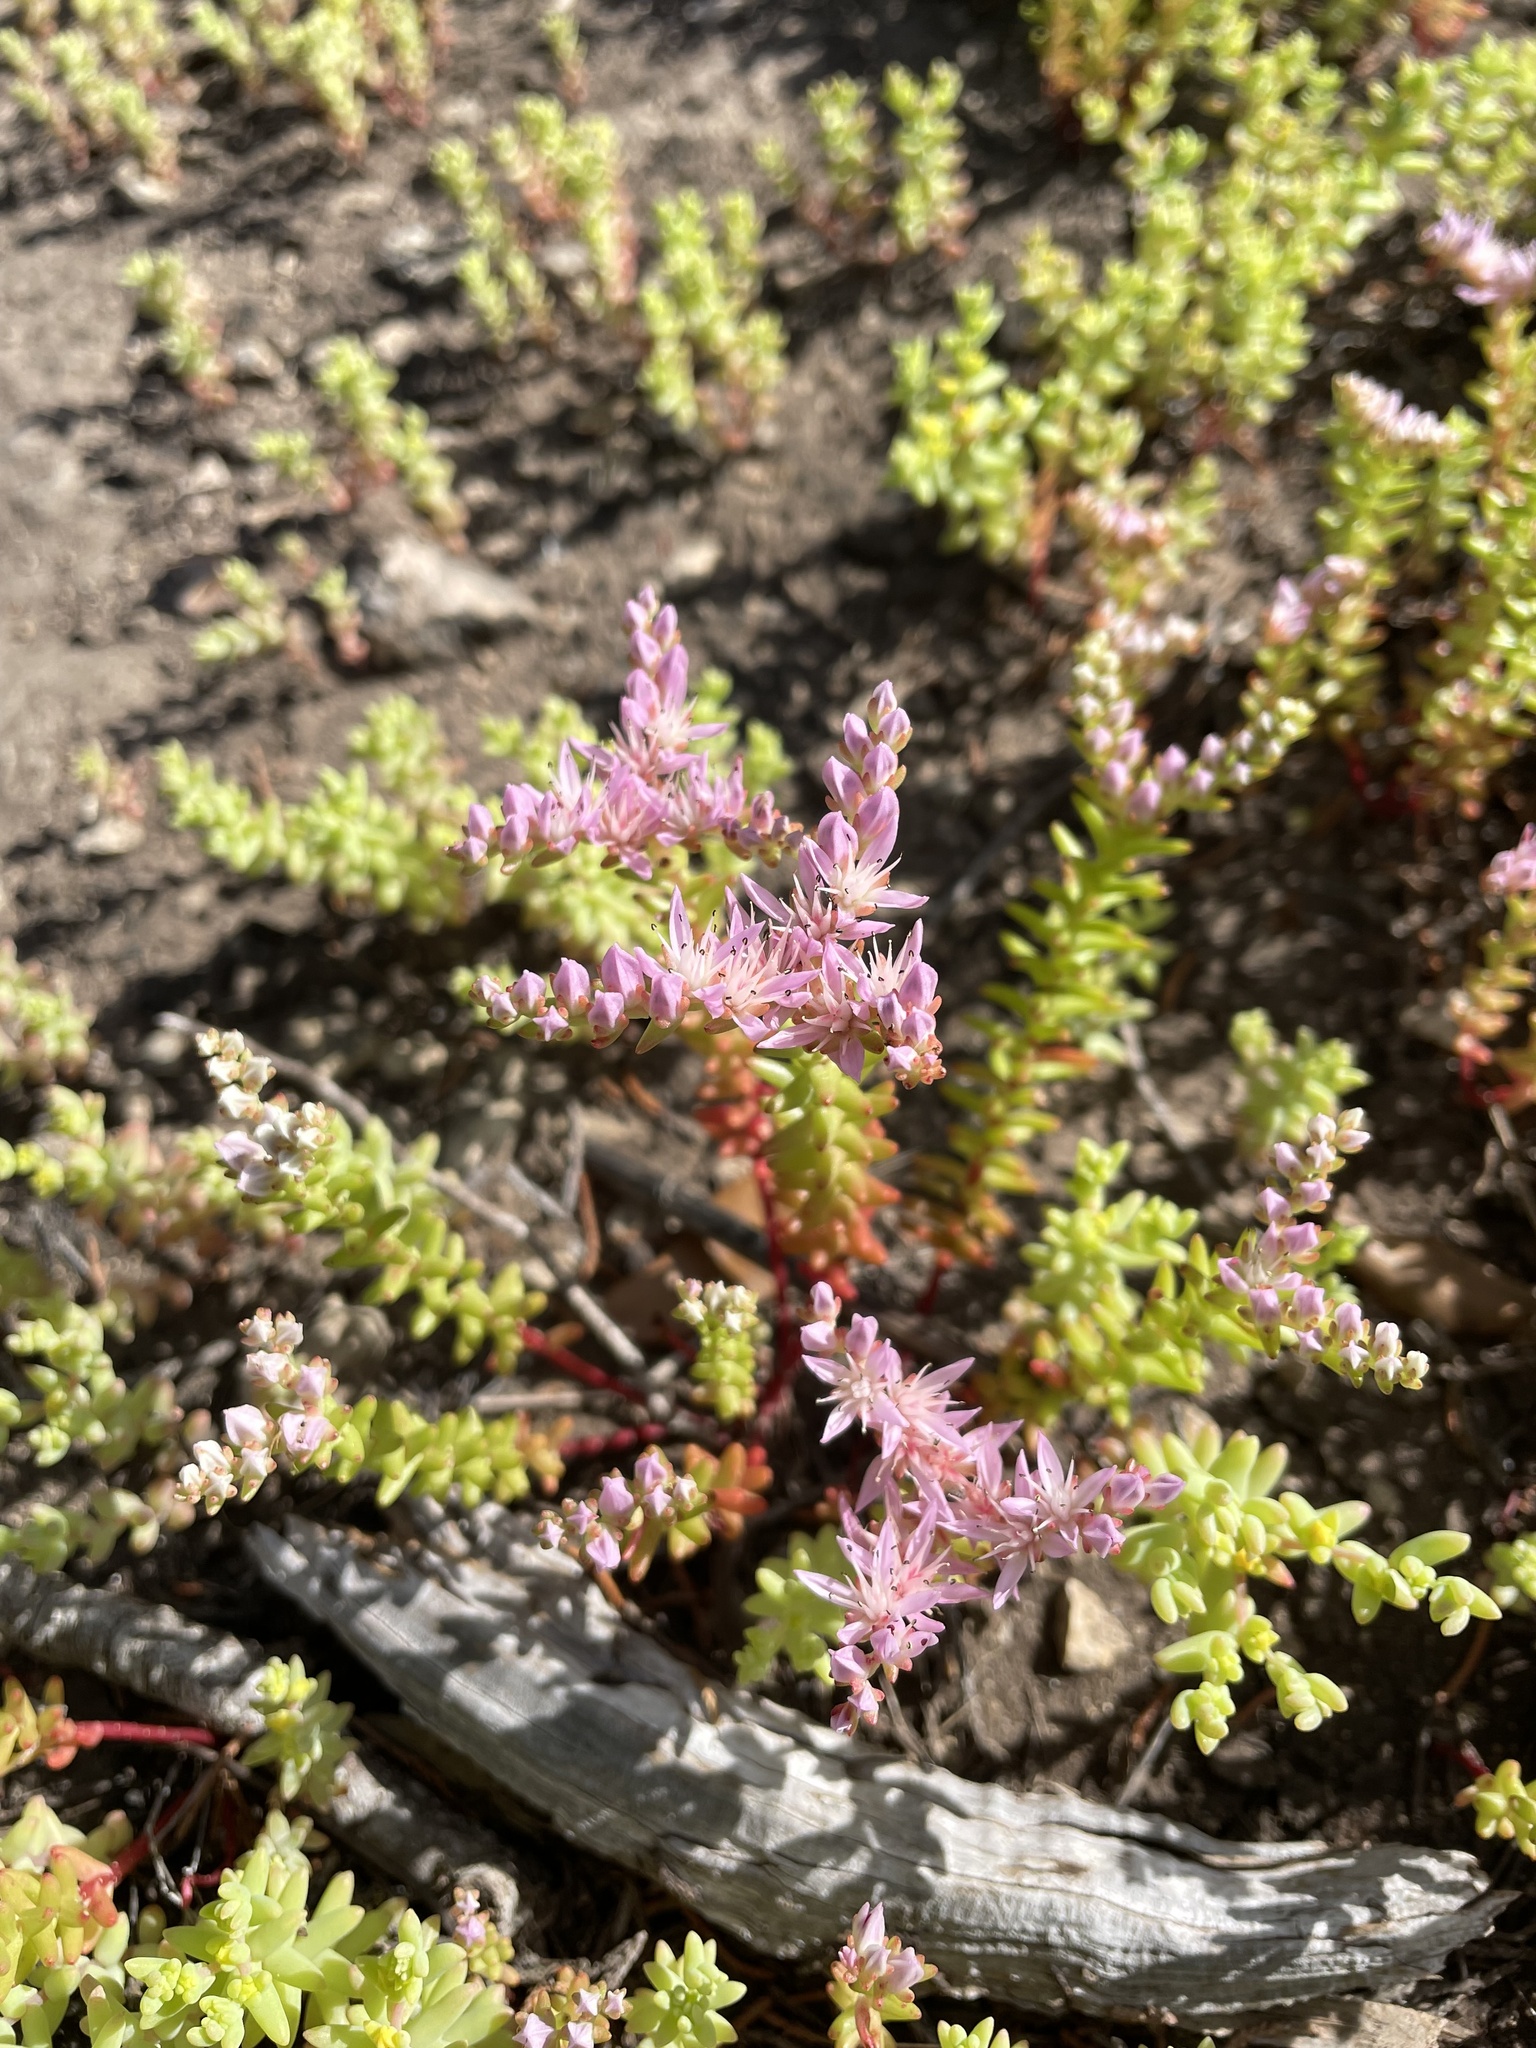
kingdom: Plantae
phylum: Tracheophyta
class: Magnoliopsida
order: Saxifragales
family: Crassulaceae
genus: Sedum
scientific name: Sedum pulchellum
